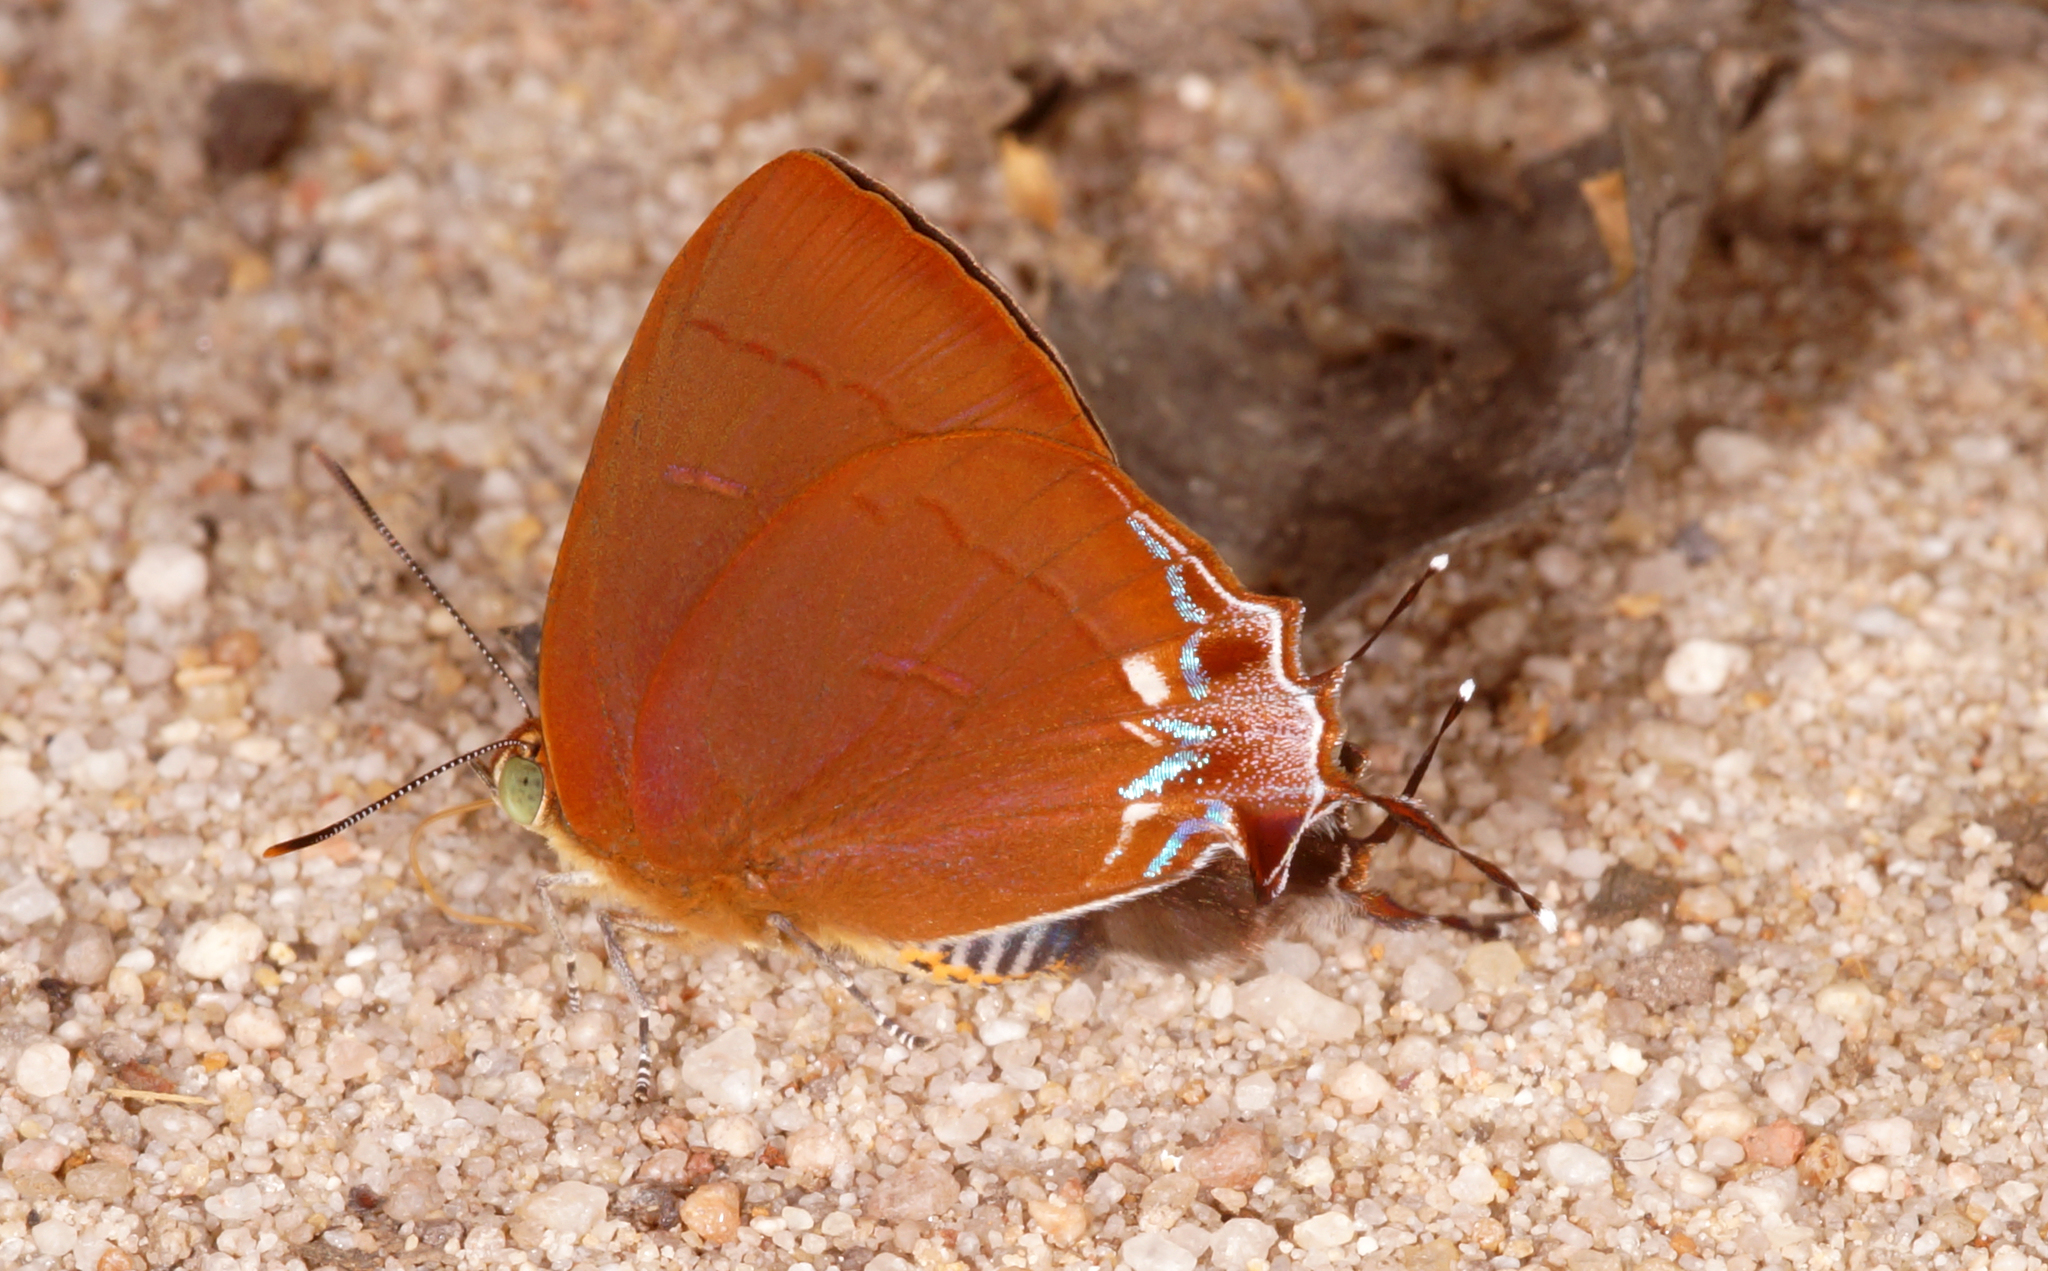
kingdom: Animalia
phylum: Arthropoda
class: Insecta
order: Lepidoptera
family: Lycaenidae
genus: Remelana
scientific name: Remelana jangala
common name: Chocolate royal
